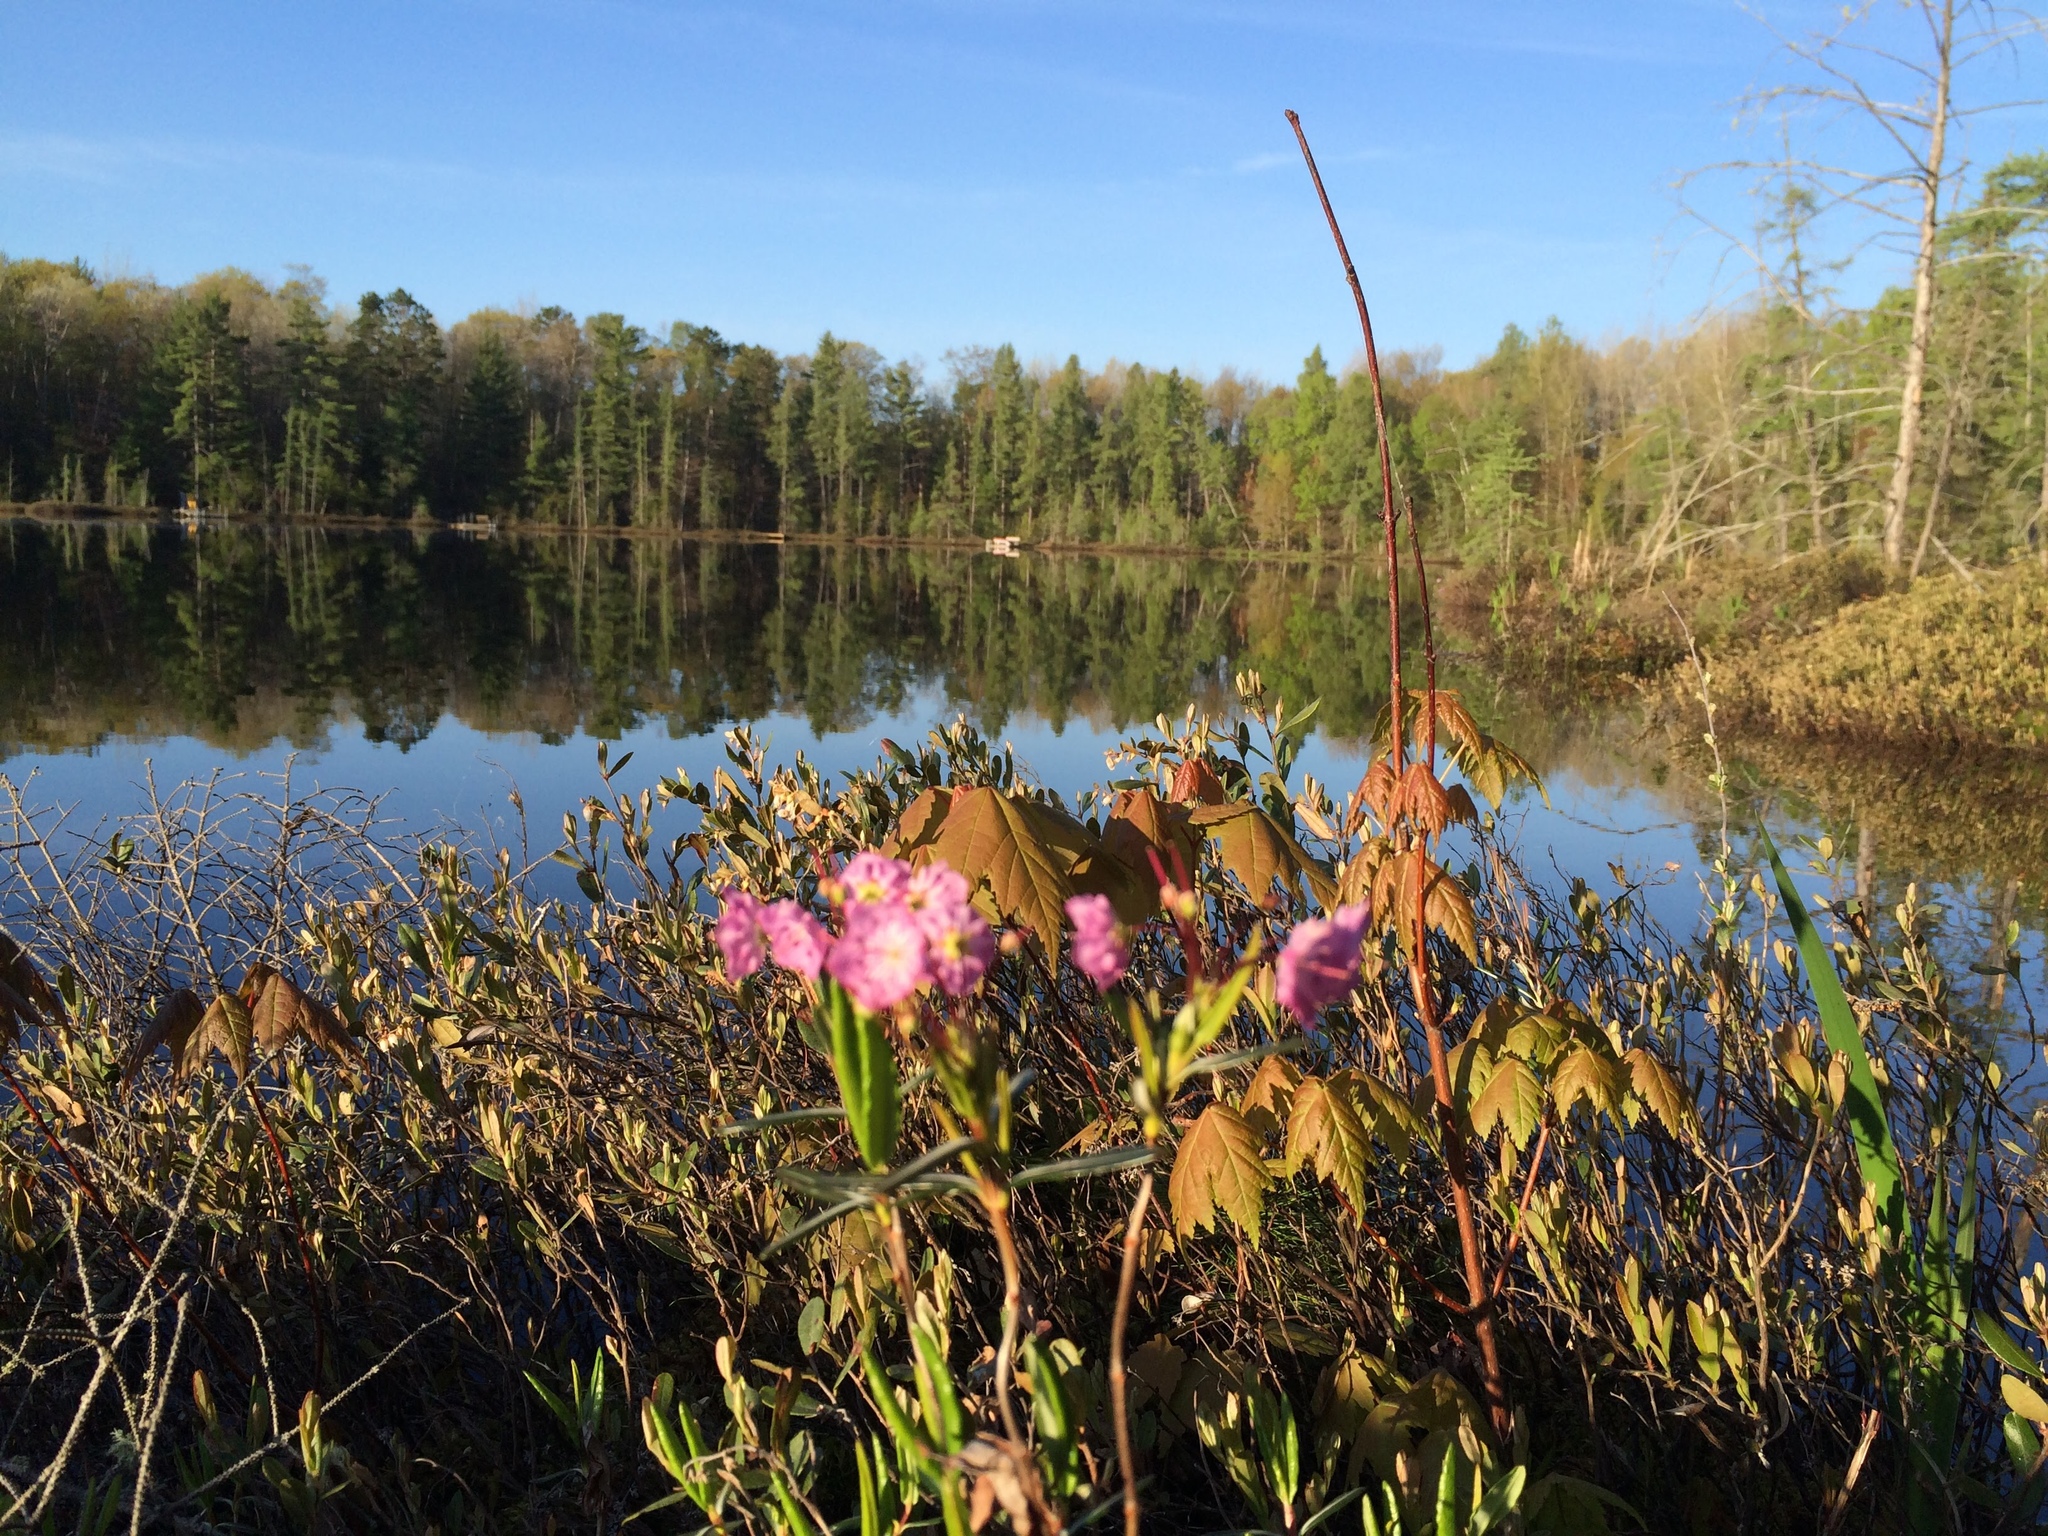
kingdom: Plantae
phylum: Tracheophyta
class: Magnoliopsida
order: Ericales
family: Ericaceae
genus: Kalmia
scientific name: Kalmia polifolia
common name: Bog-laurel
